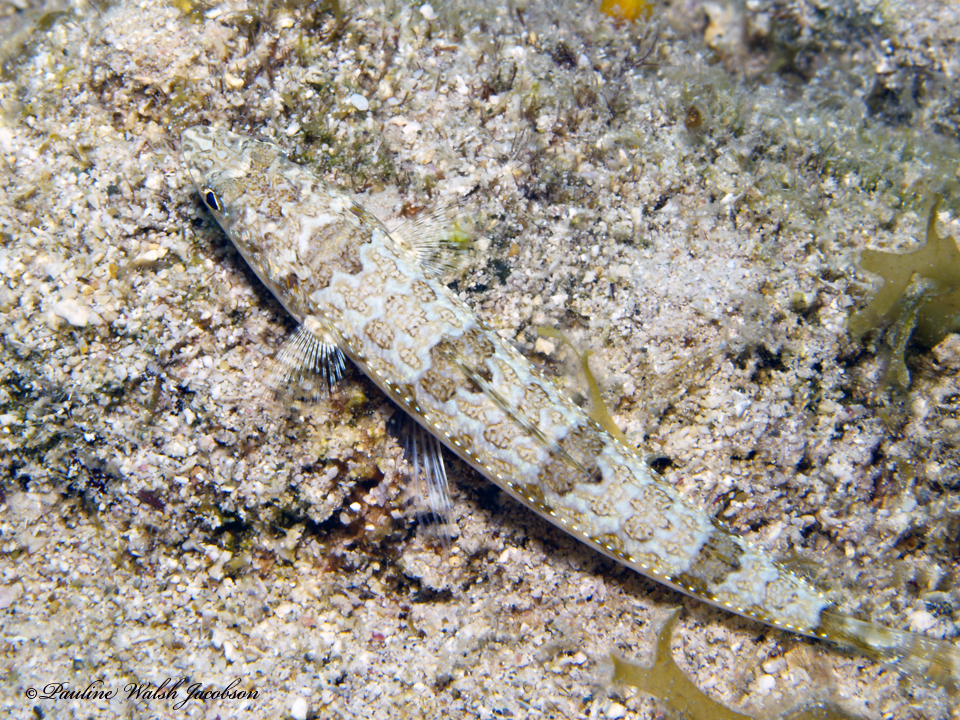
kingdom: Animalia
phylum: Chordata
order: Aulopiformes
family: Synodontidae
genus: Synodus
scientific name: Synodus intermedius
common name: Sand diver
